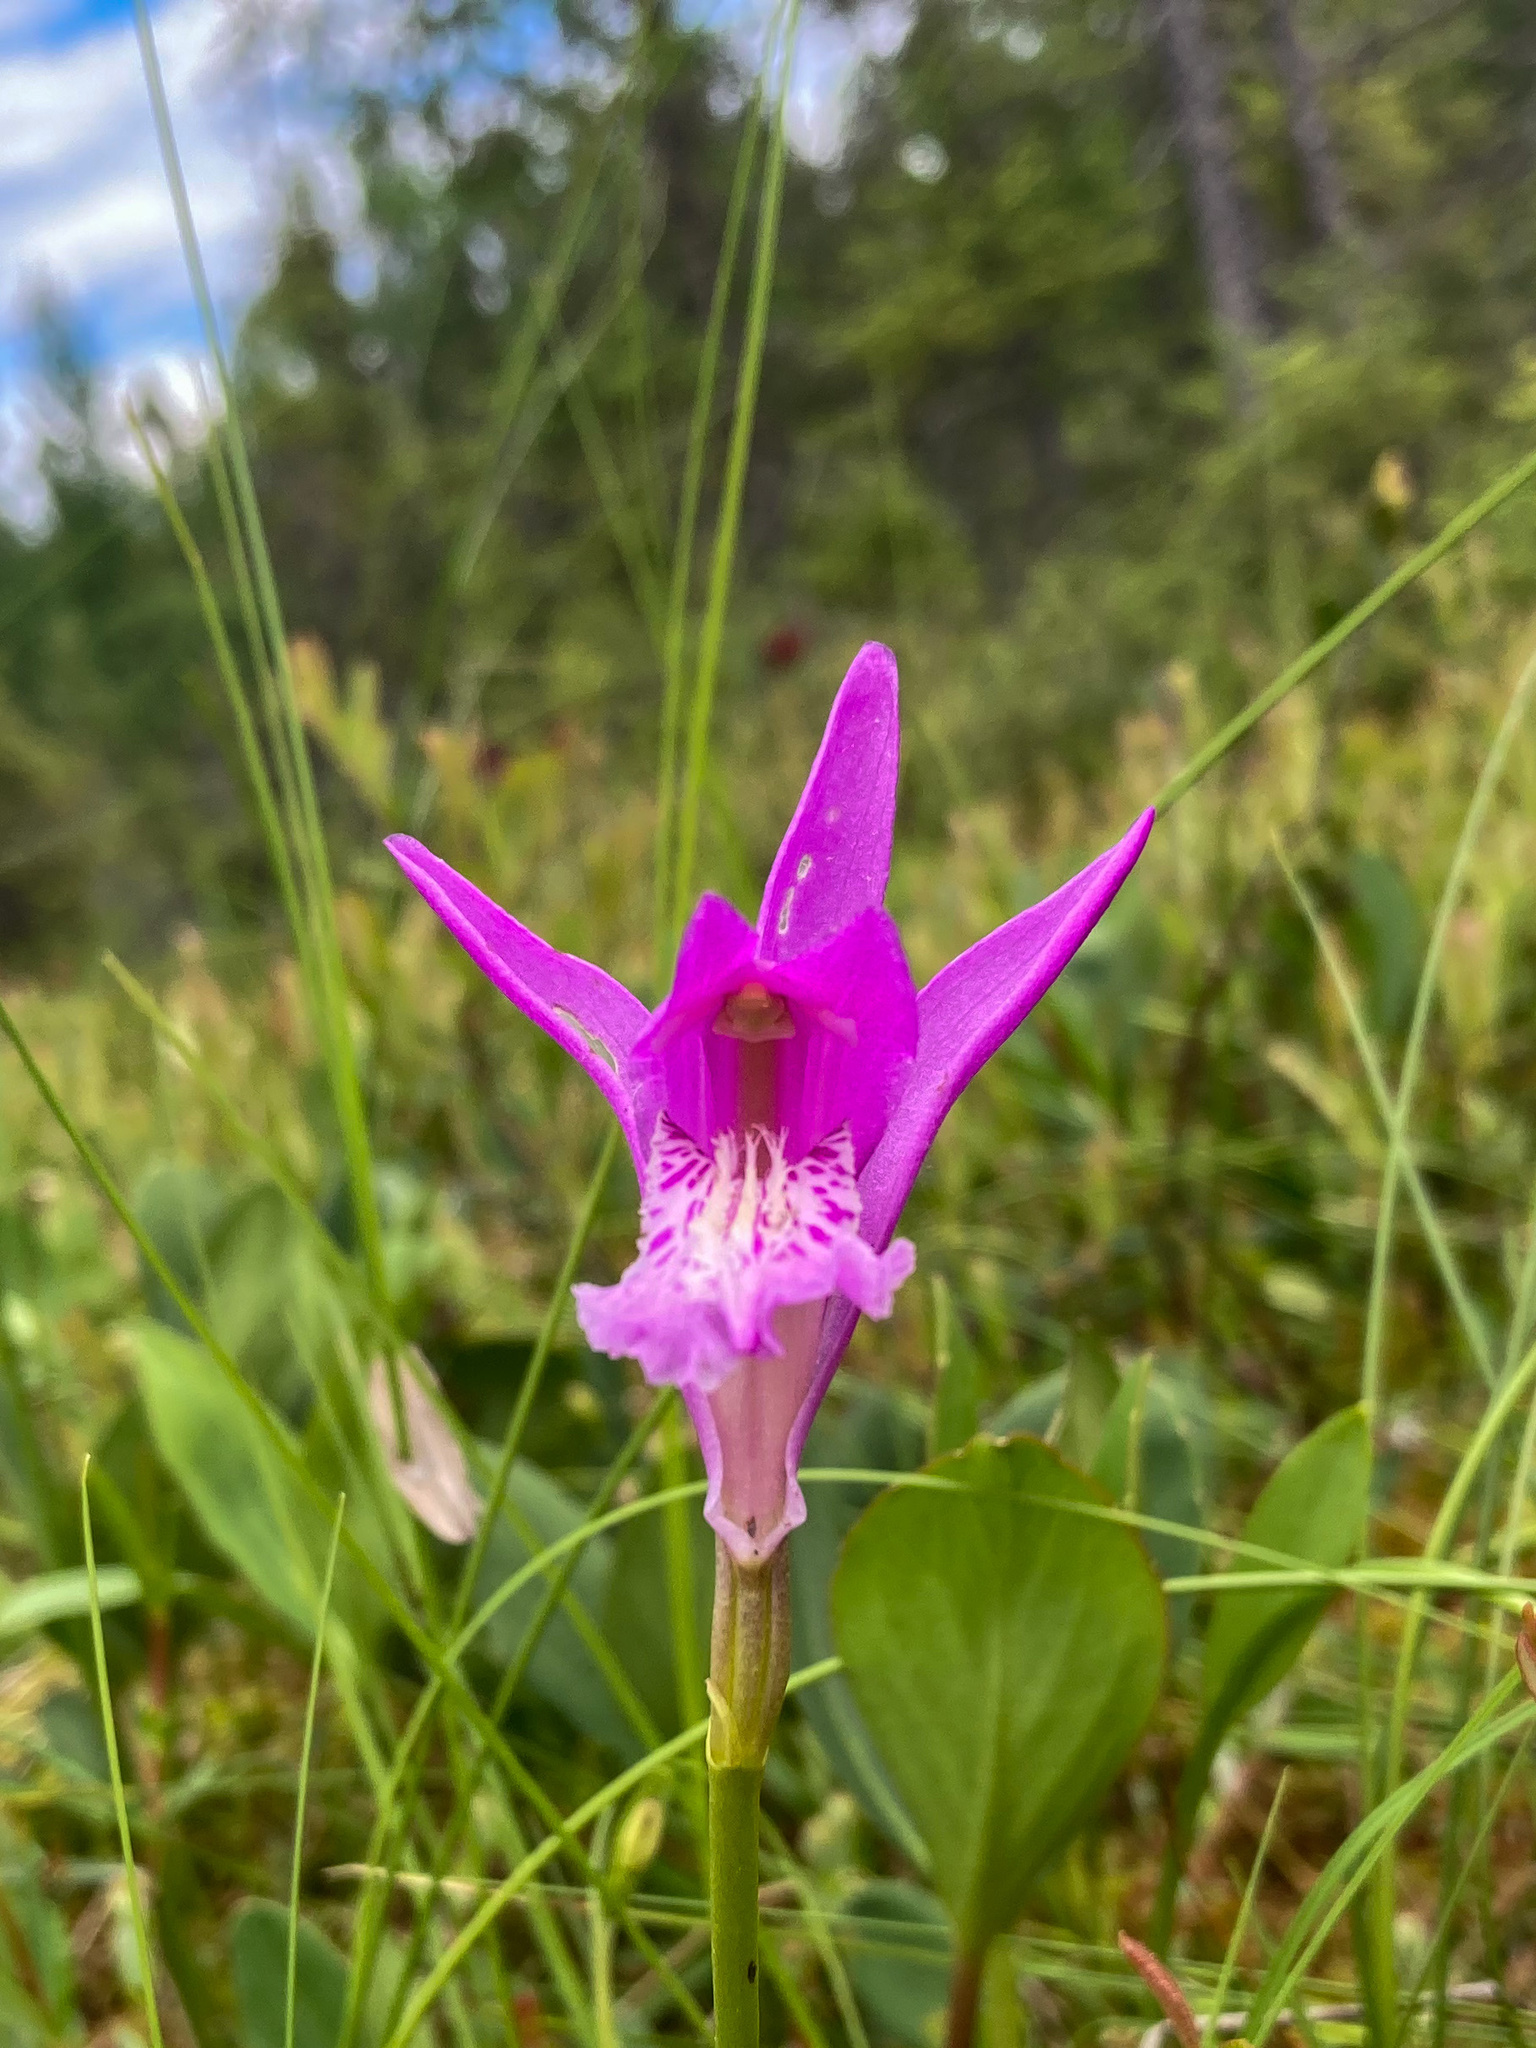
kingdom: Plantae
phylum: Tracheophyta
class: Liliopsida
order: Asparagales
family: Orchidaceae
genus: Arethusa
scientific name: Arethusa bulbosa
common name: Arethusa
